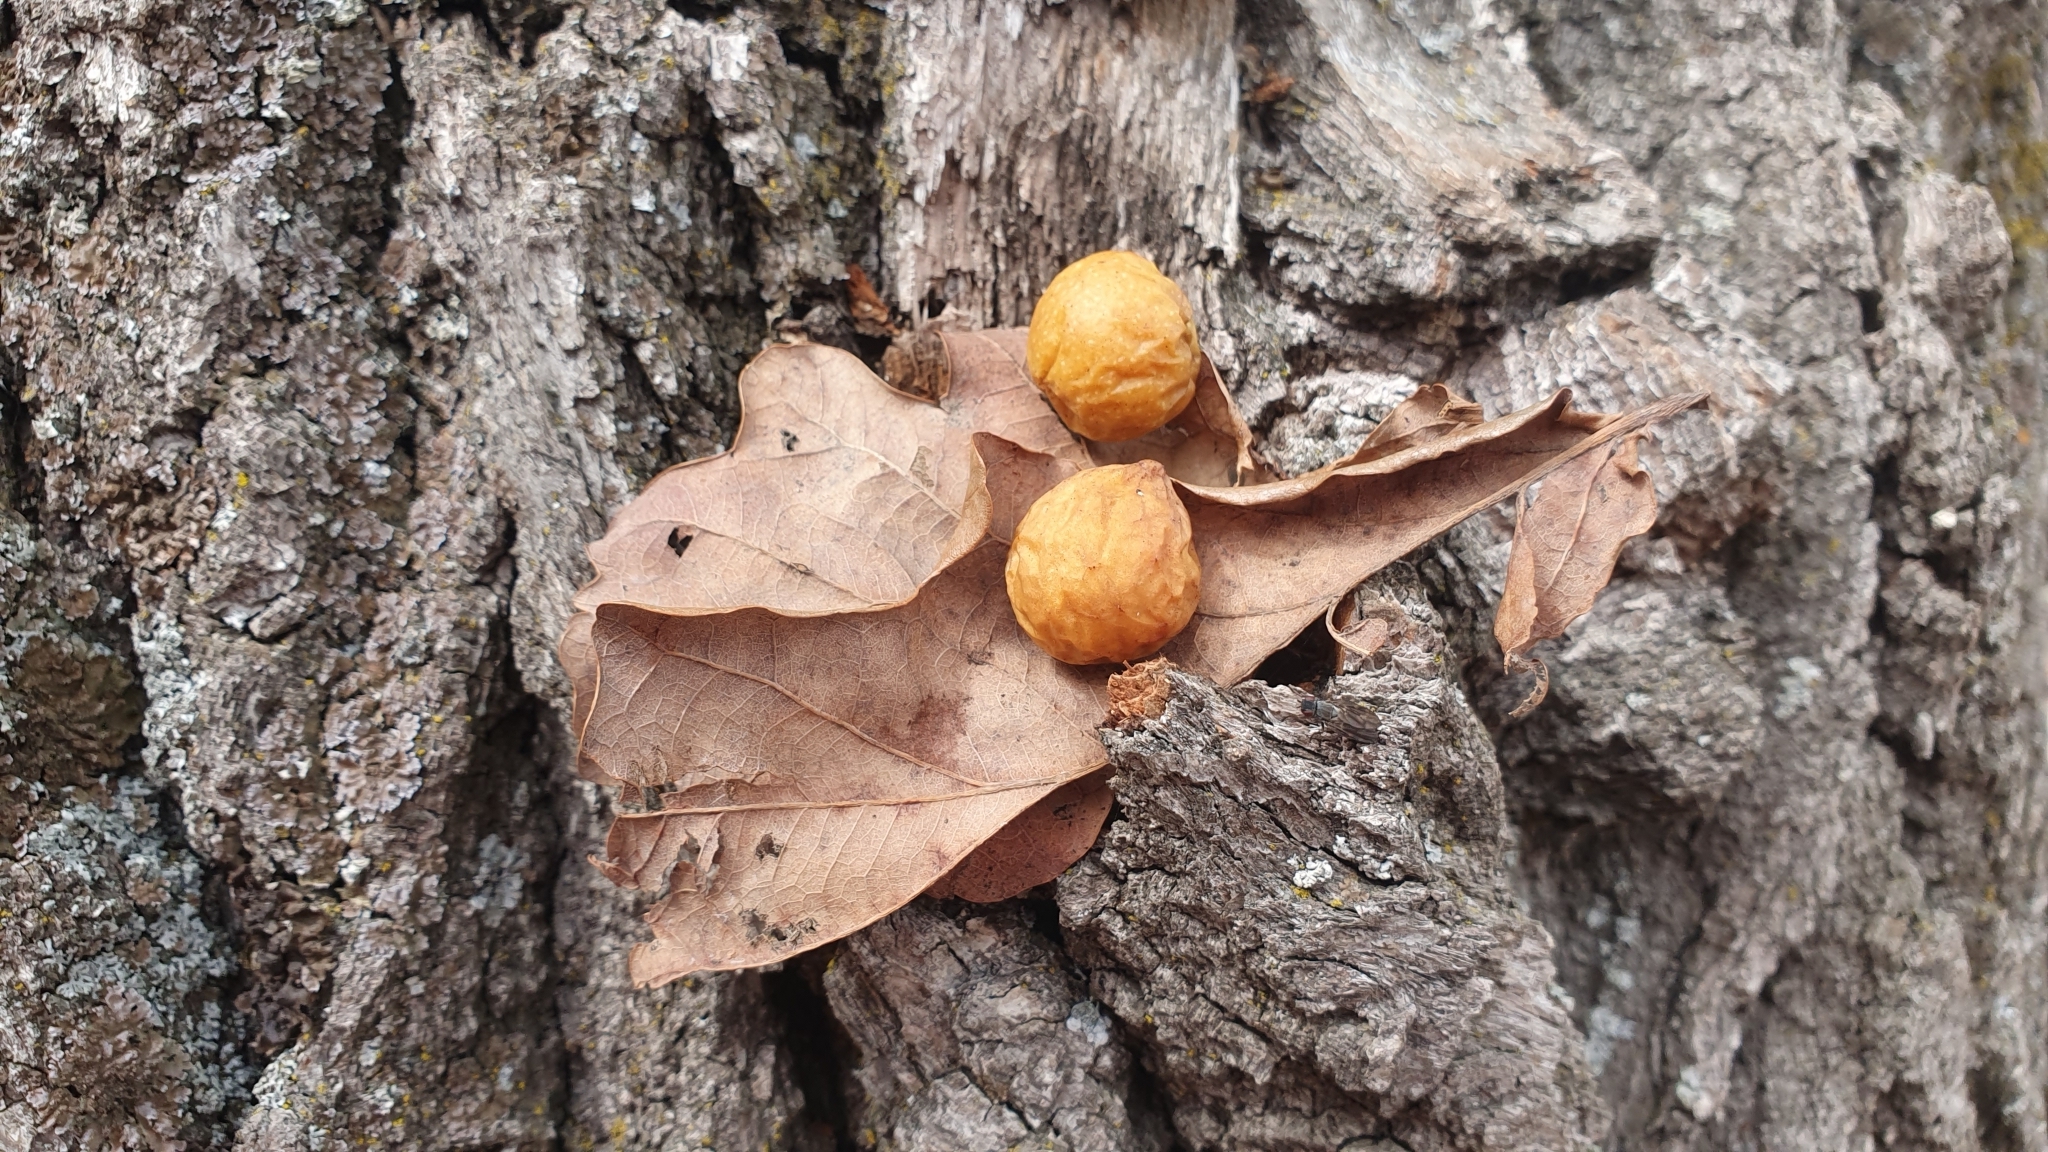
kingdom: Animalia
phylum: Arthropoda
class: Insecta
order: Hymenoptera
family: Cynipidae
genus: Cynips
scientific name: Cynips quercusfolii
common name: Cherry gall
